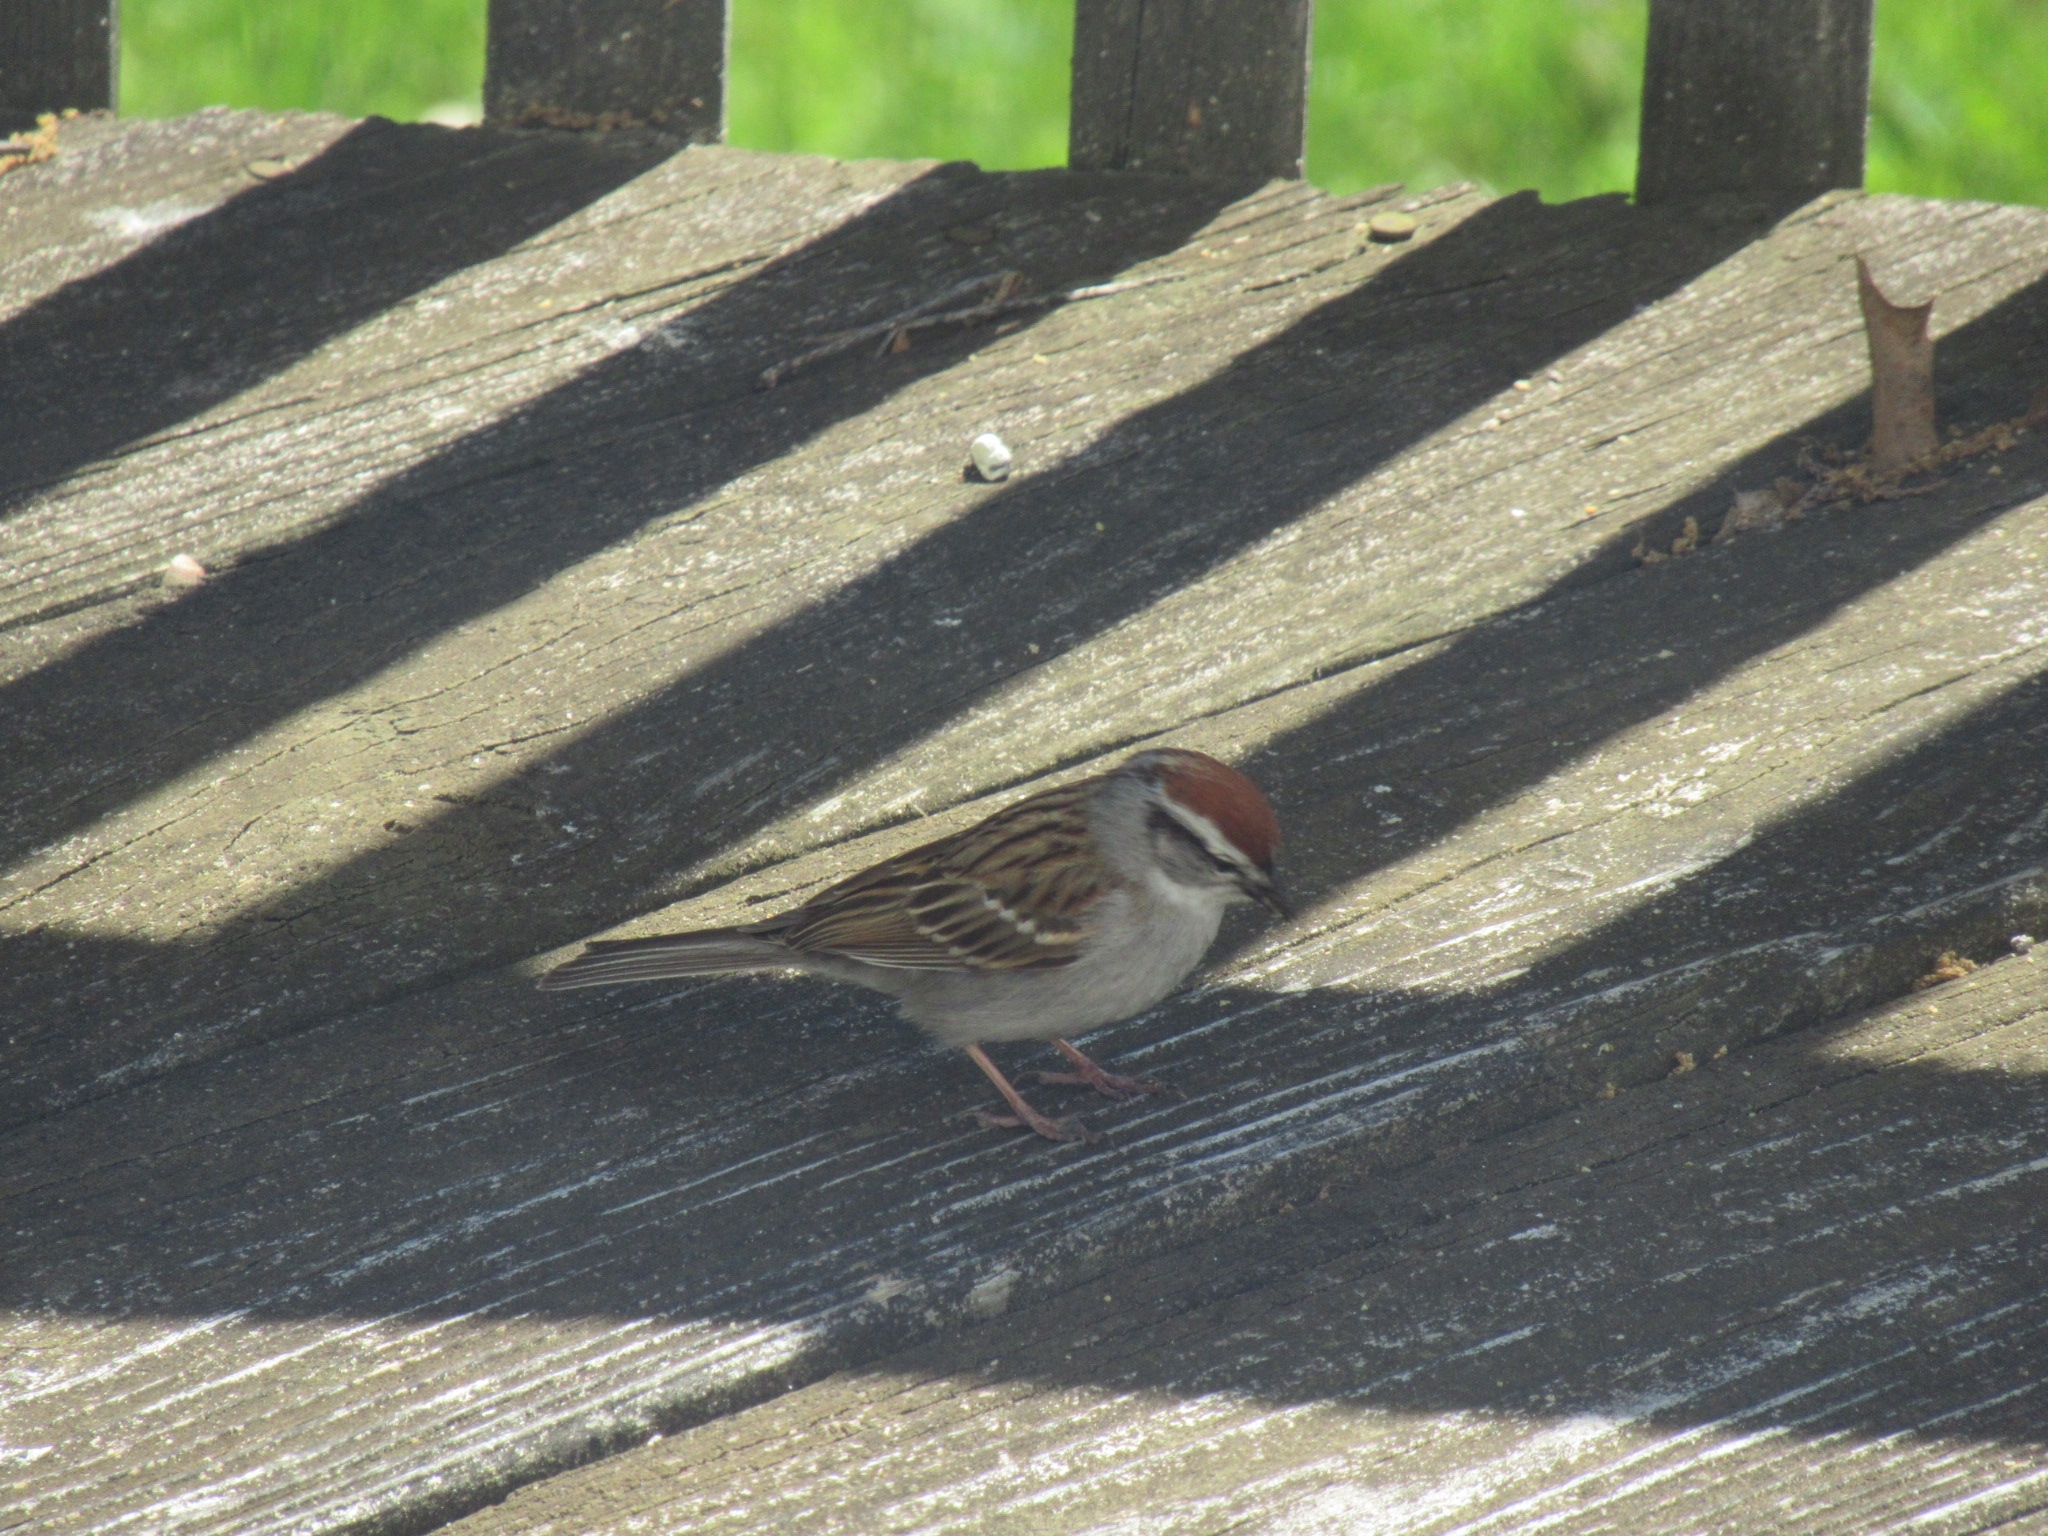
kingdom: Animalia
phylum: Chordata
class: Aves
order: Passeriformes
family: Passerellidae
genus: Spizella
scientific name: Spizella passerina
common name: Chipping sparrow
